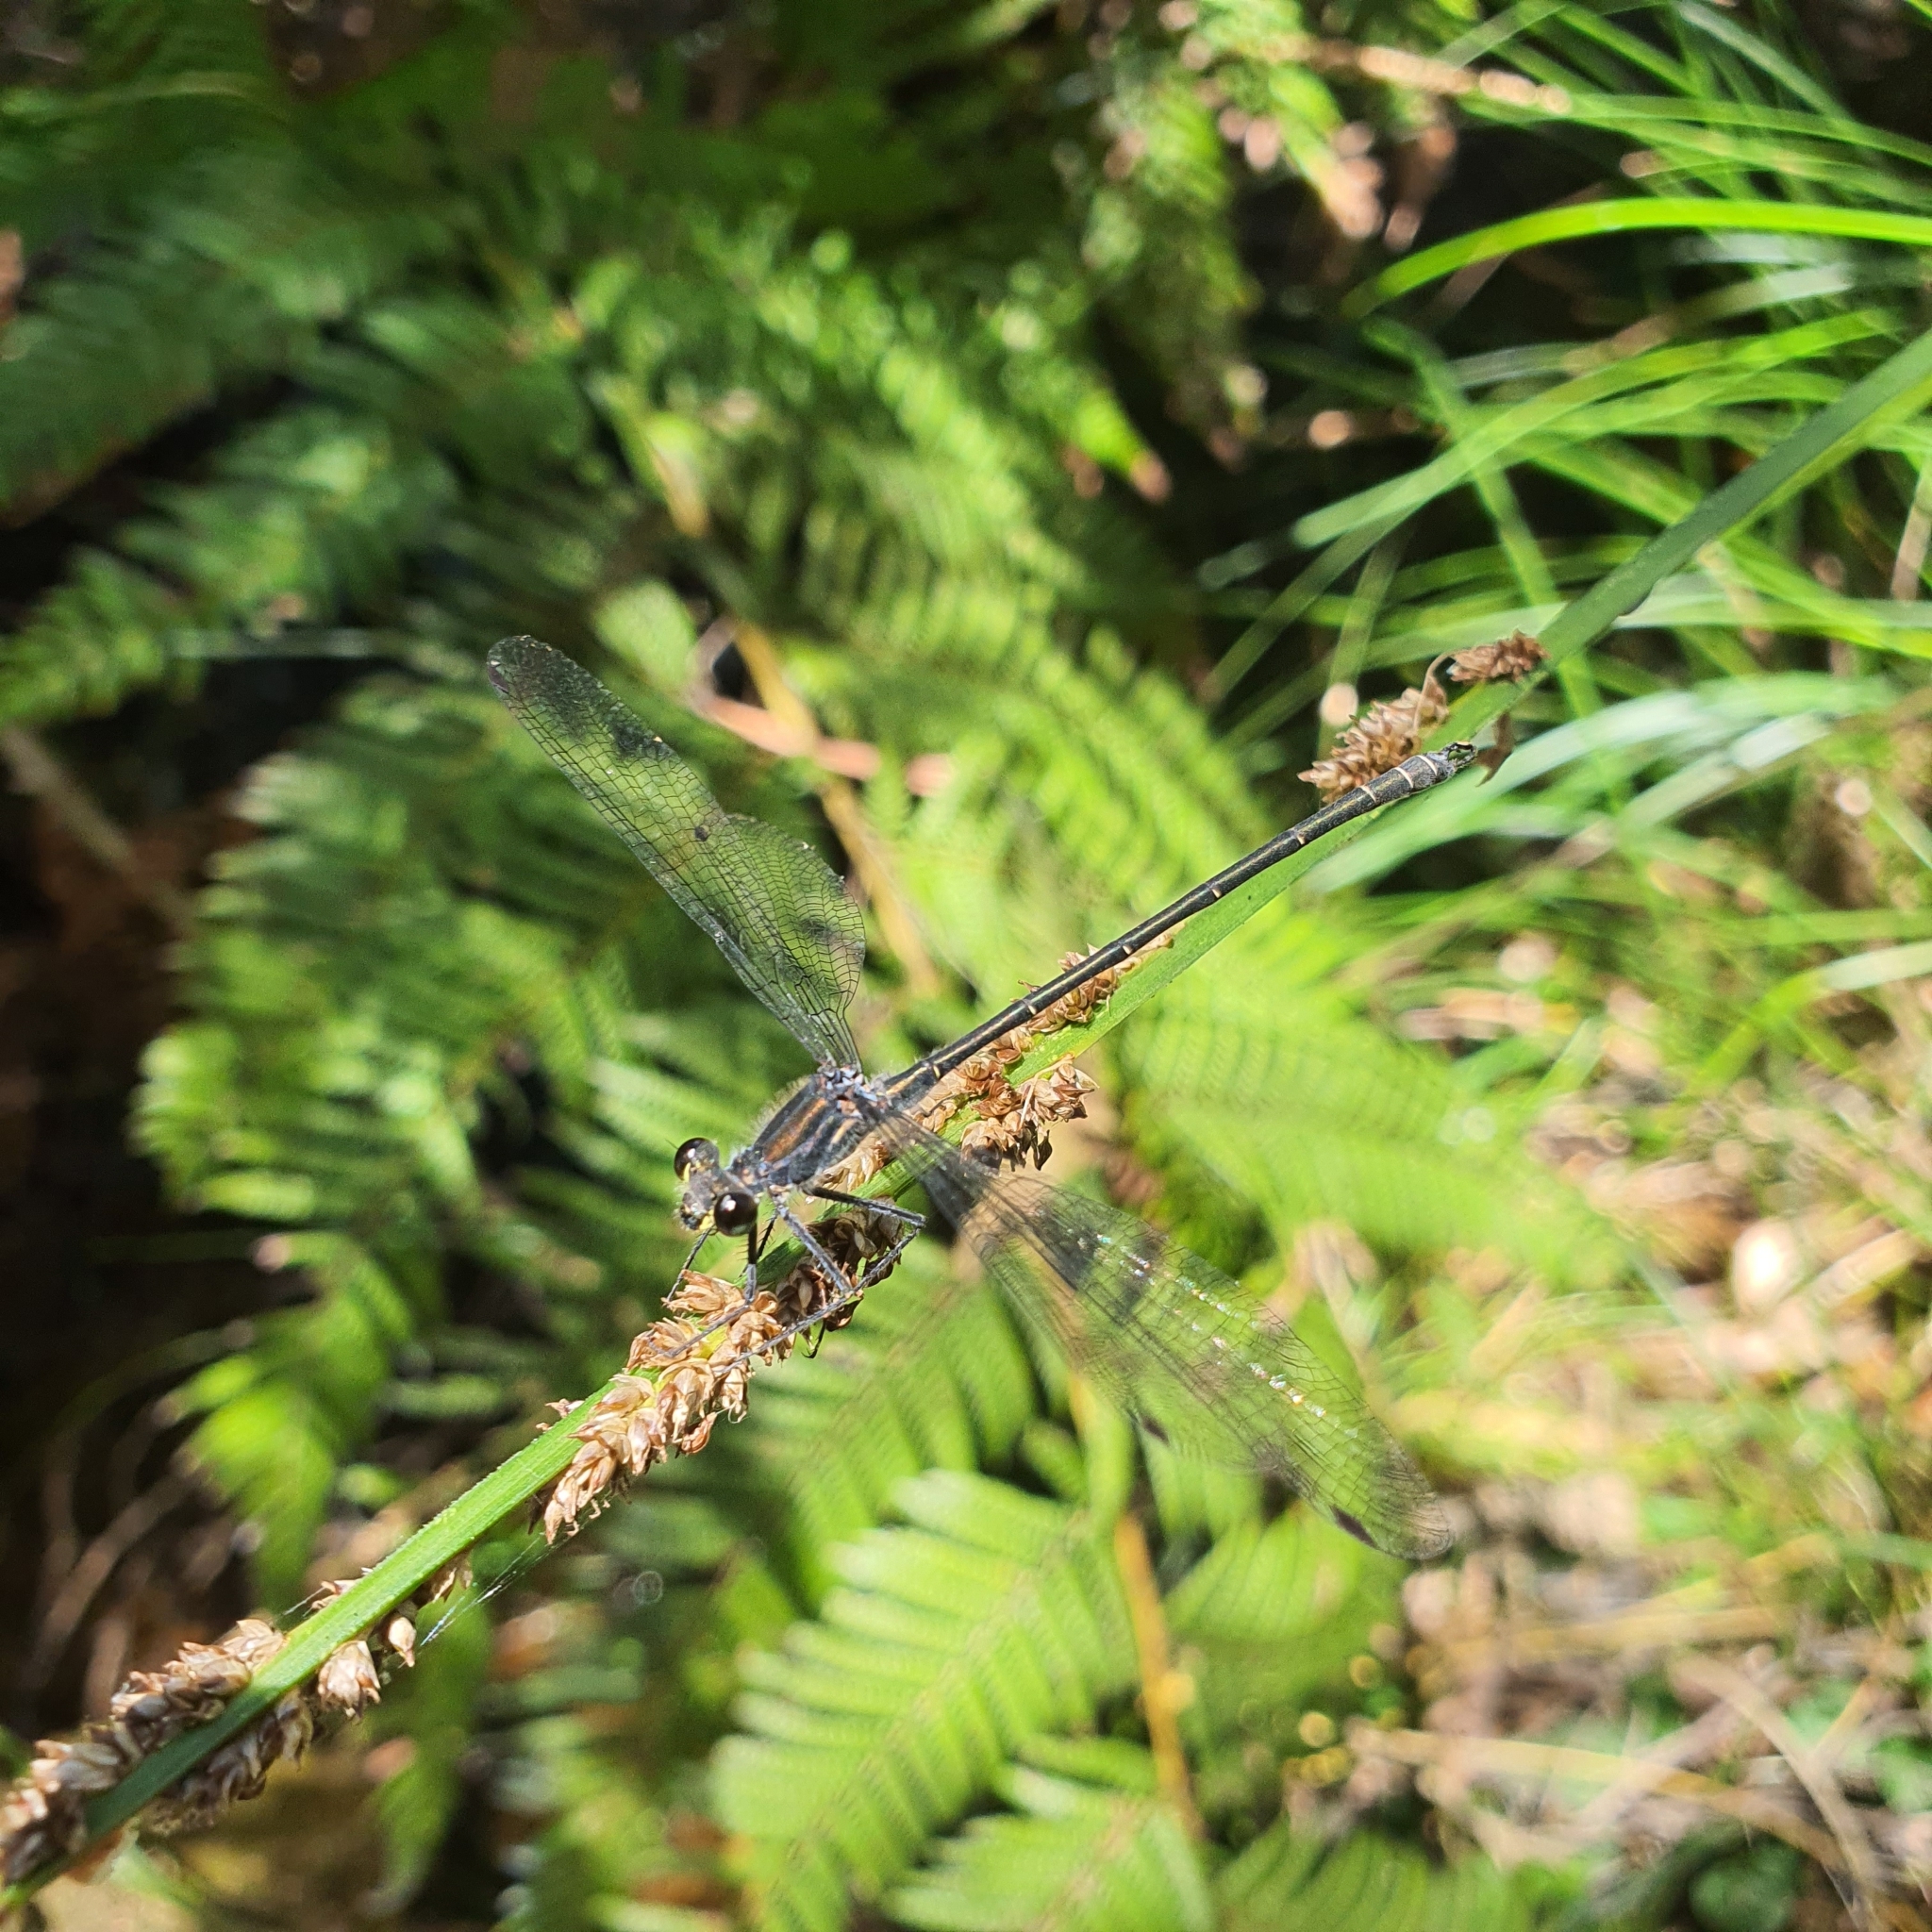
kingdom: Animalia
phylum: Arthropoda
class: Insecta
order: Odonata
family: Argiolestidae
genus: Austroargiolestes
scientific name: Austroargiolestes icteromelas
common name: Common flatwing
